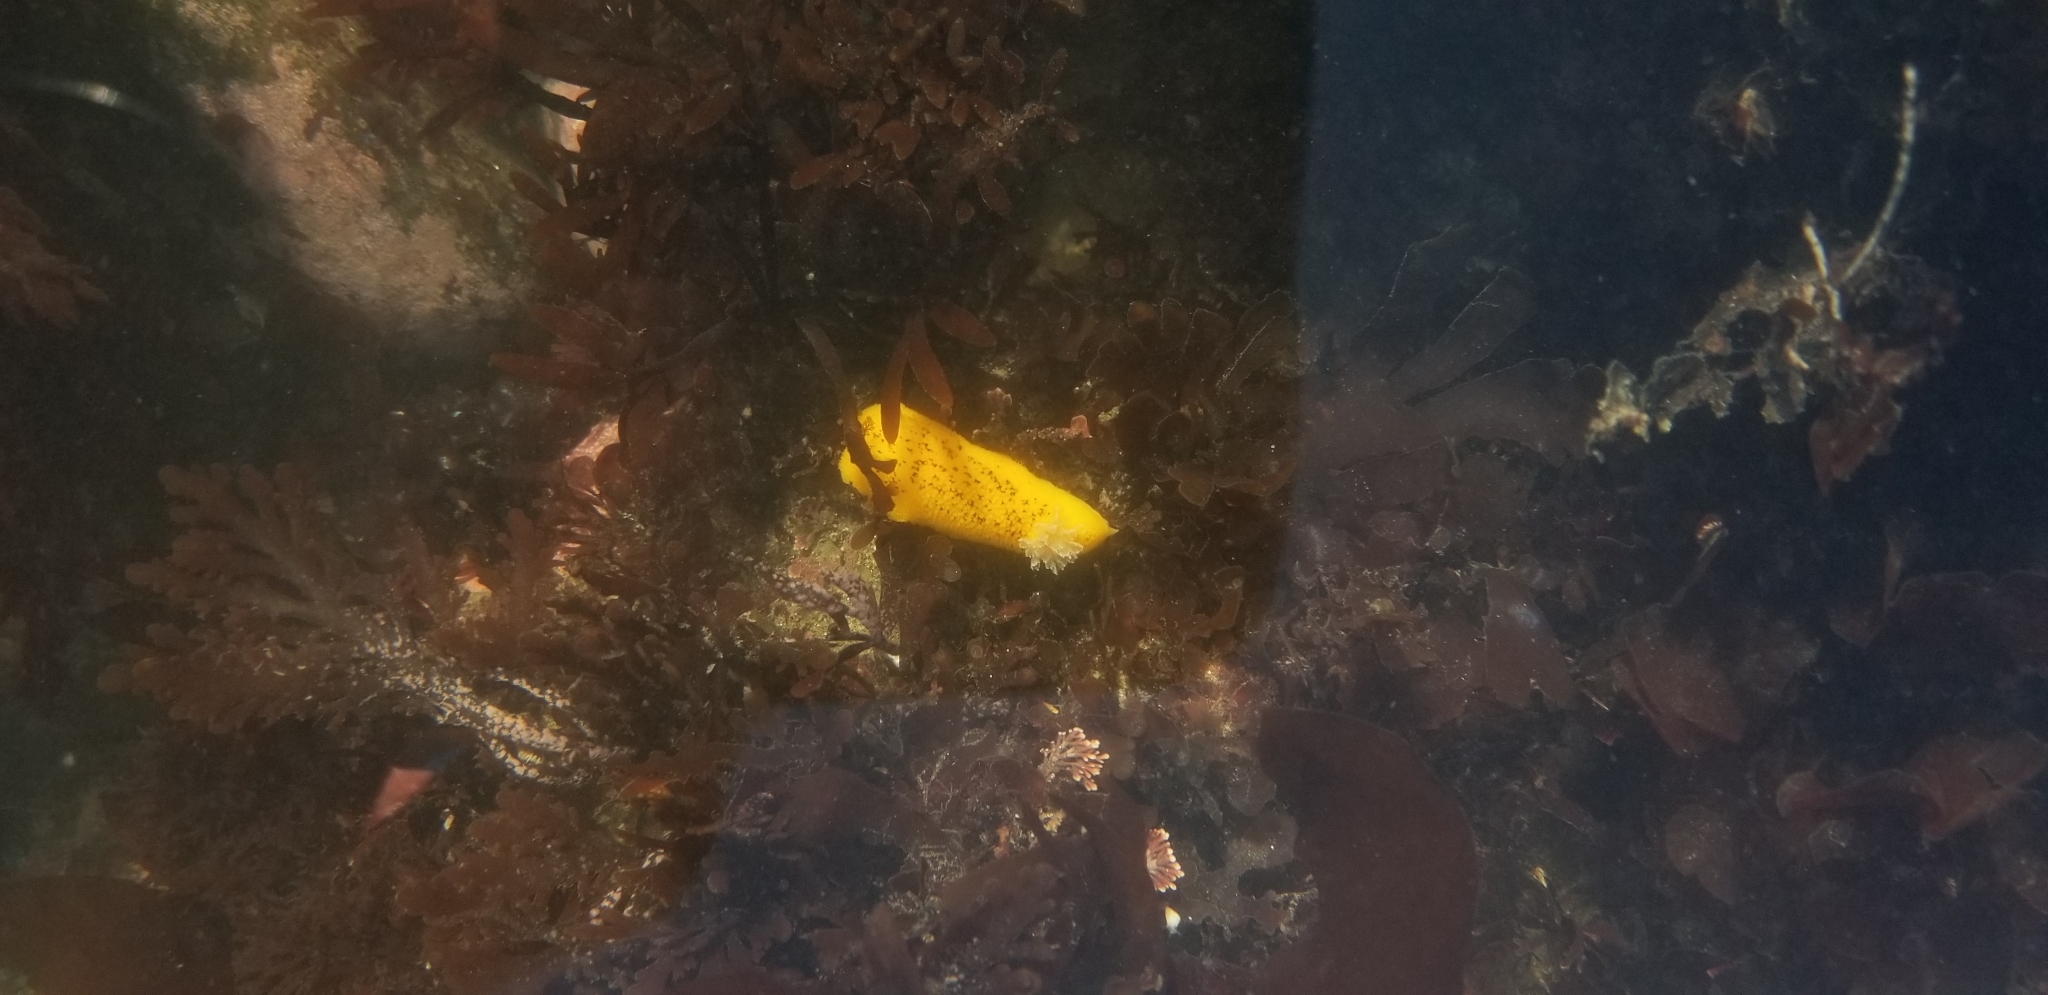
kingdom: Animalia
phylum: Mollusca
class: Gastropoda
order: Nudibranchia
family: Discodorididae
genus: Peltodoris
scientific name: Peltodoris nobilis
